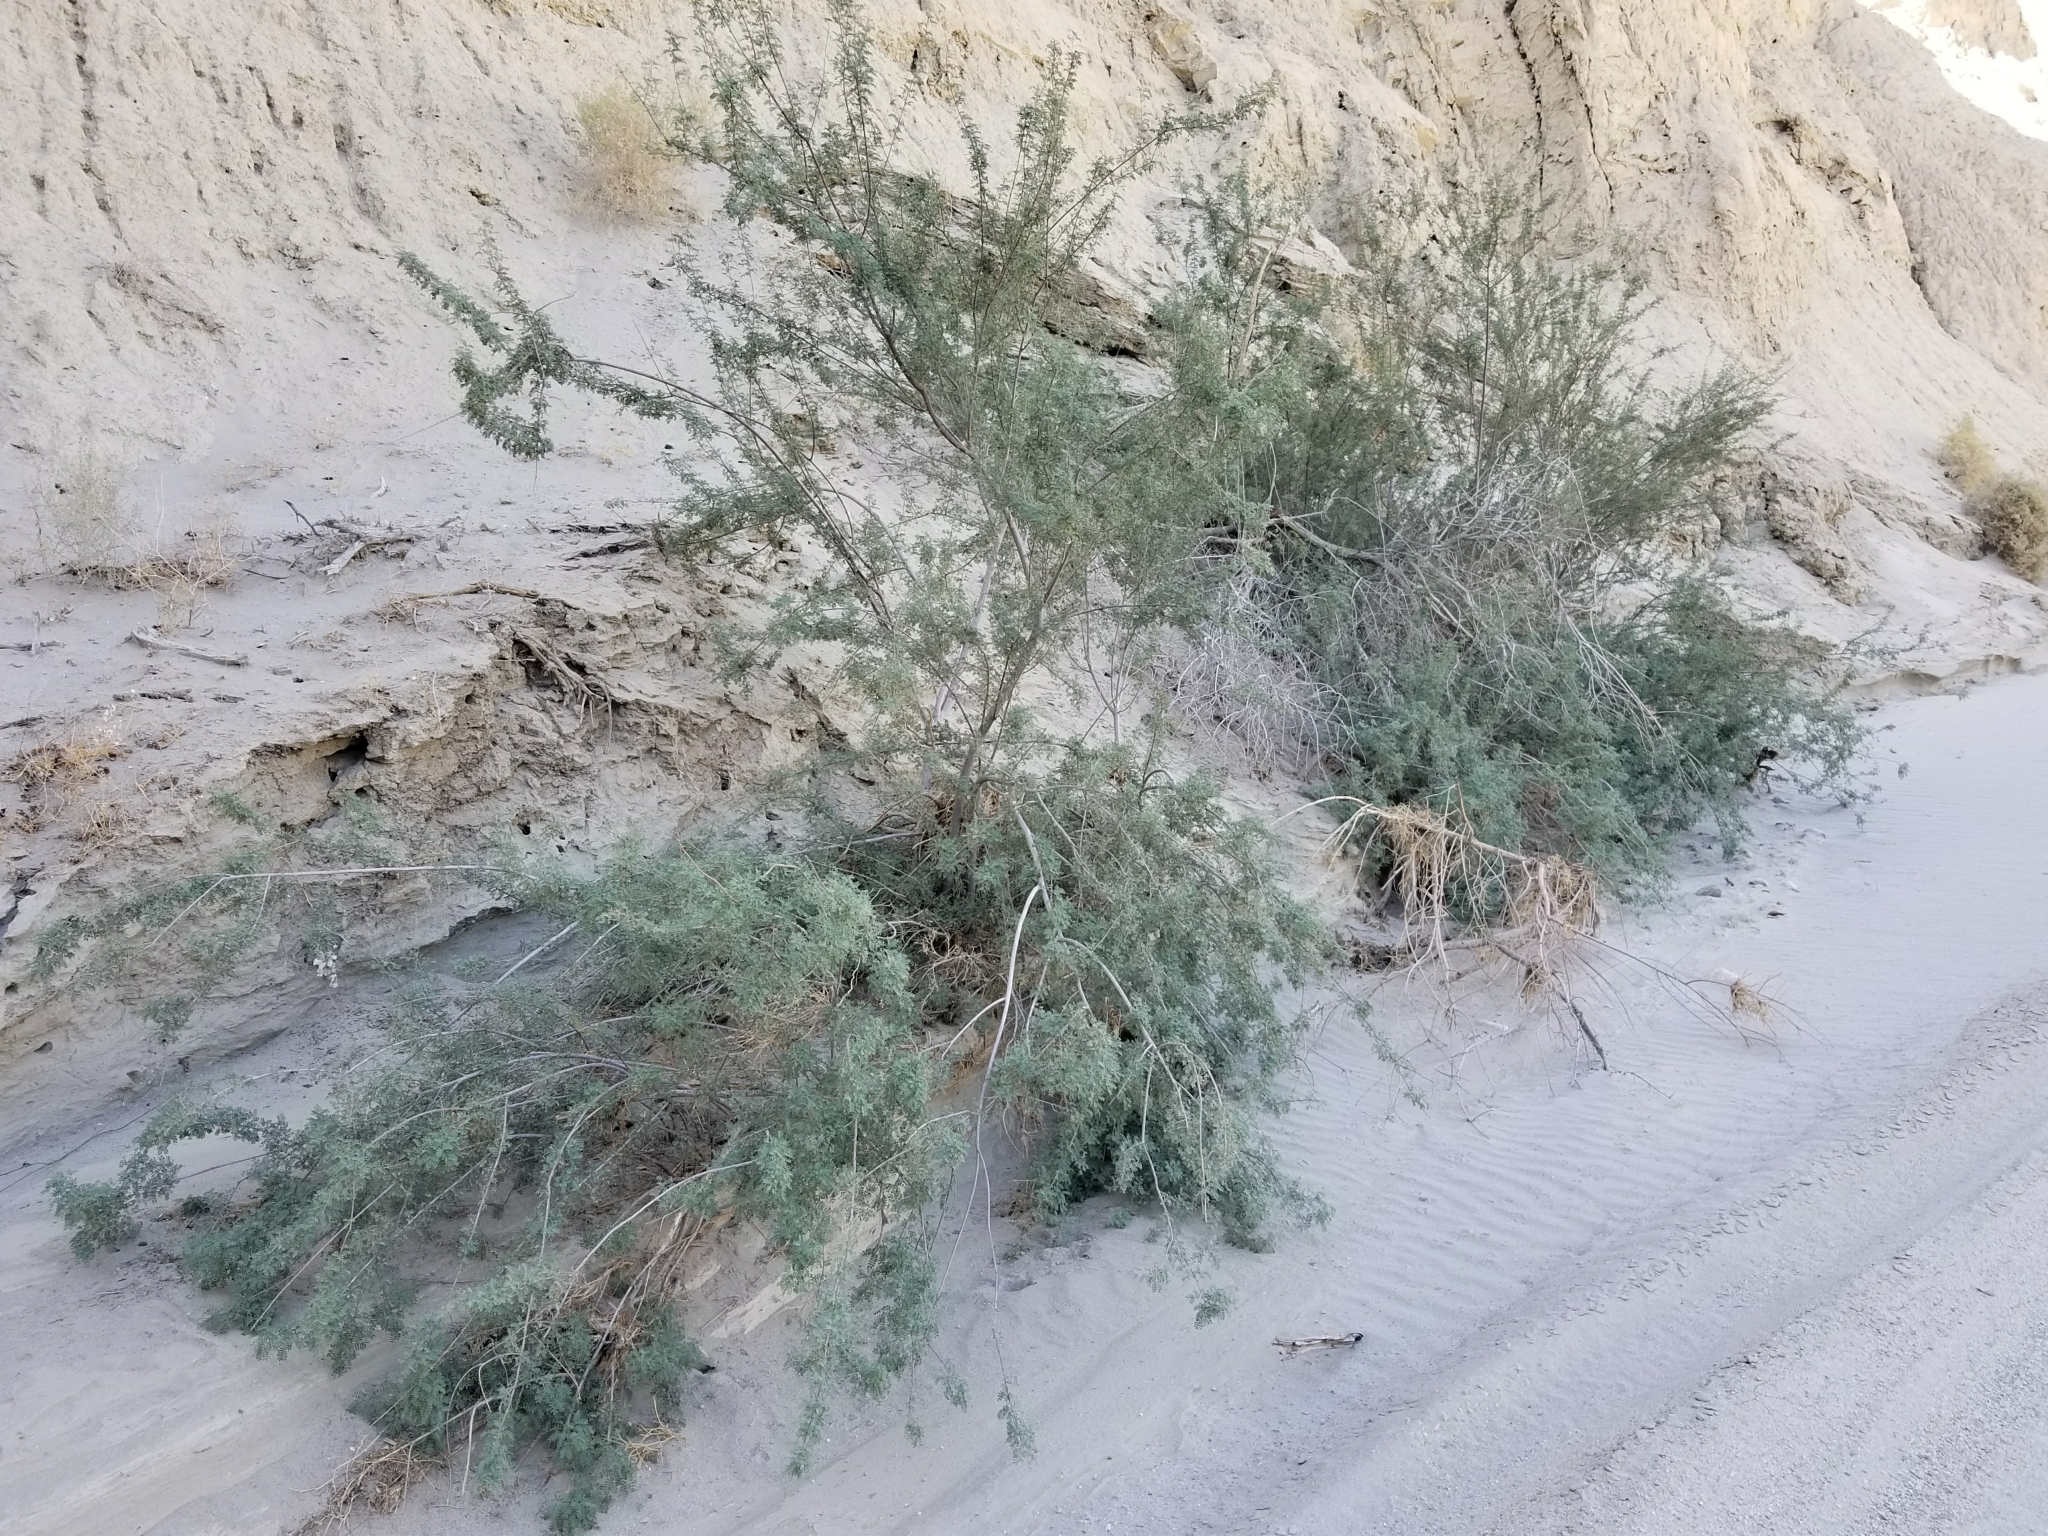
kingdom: Plantae
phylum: Tracheophyta
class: Magnoliopsida
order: Fabales
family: Fabaceae
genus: Senegalia
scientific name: Senegalia greggii
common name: Texas-mimosa
